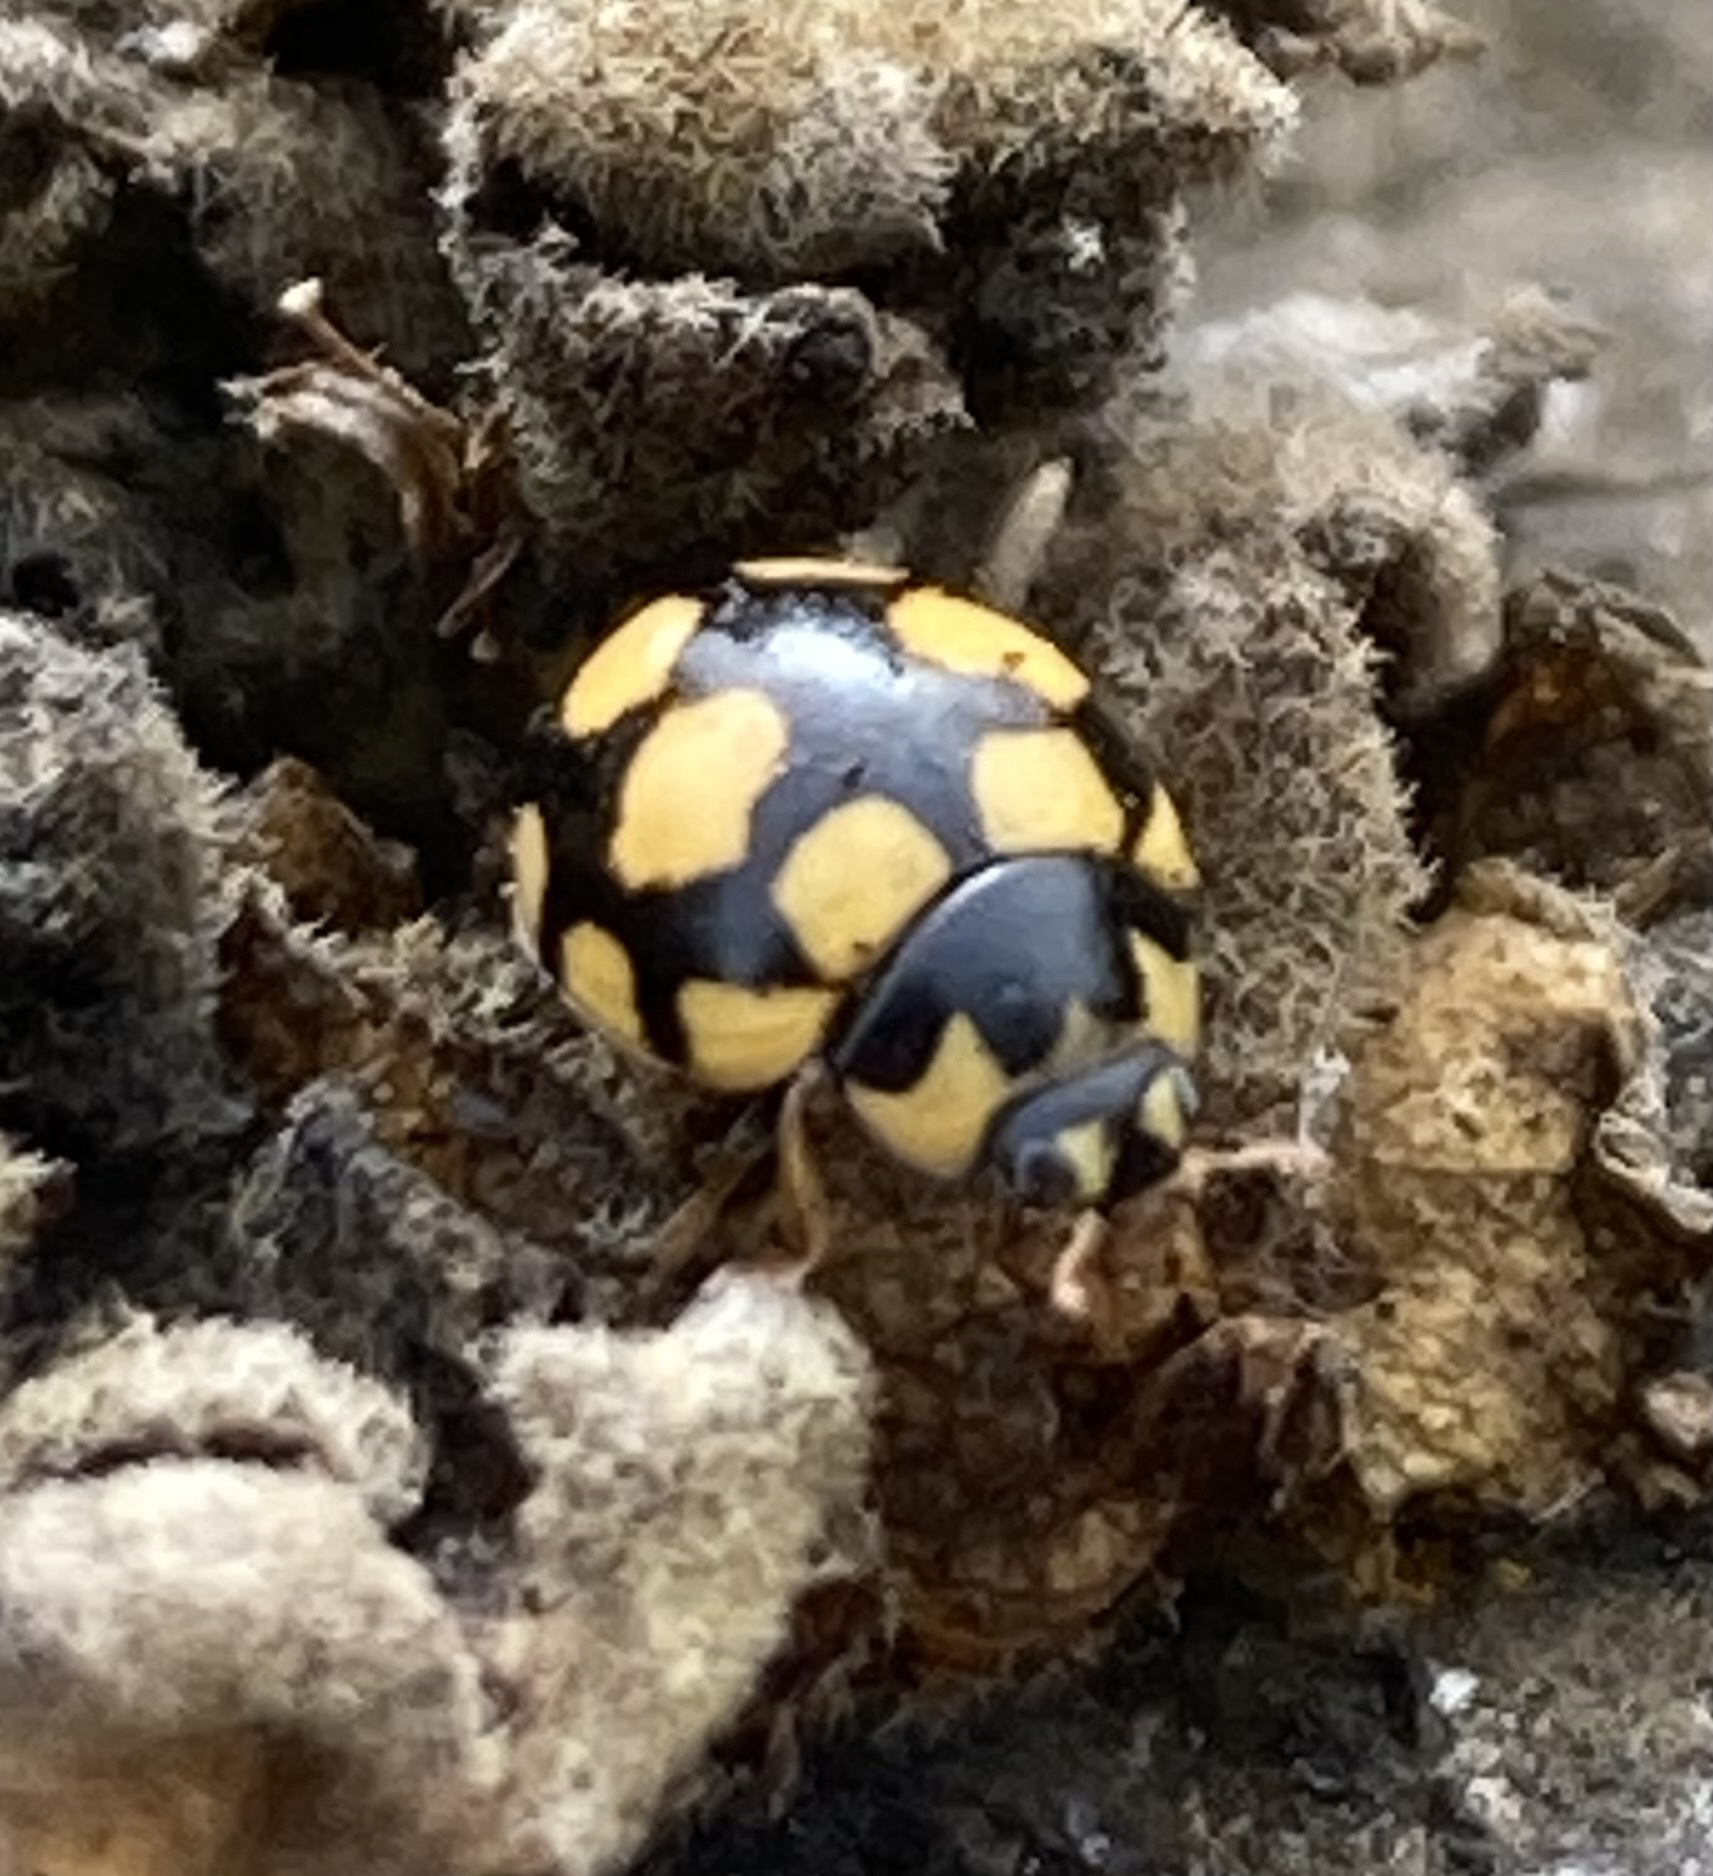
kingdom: Animalia
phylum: Arthropoda
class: Insecta
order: Coleoptera
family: Coccinellidae
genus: Coccinula
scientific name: Coccinula quatuordecimpustulata
